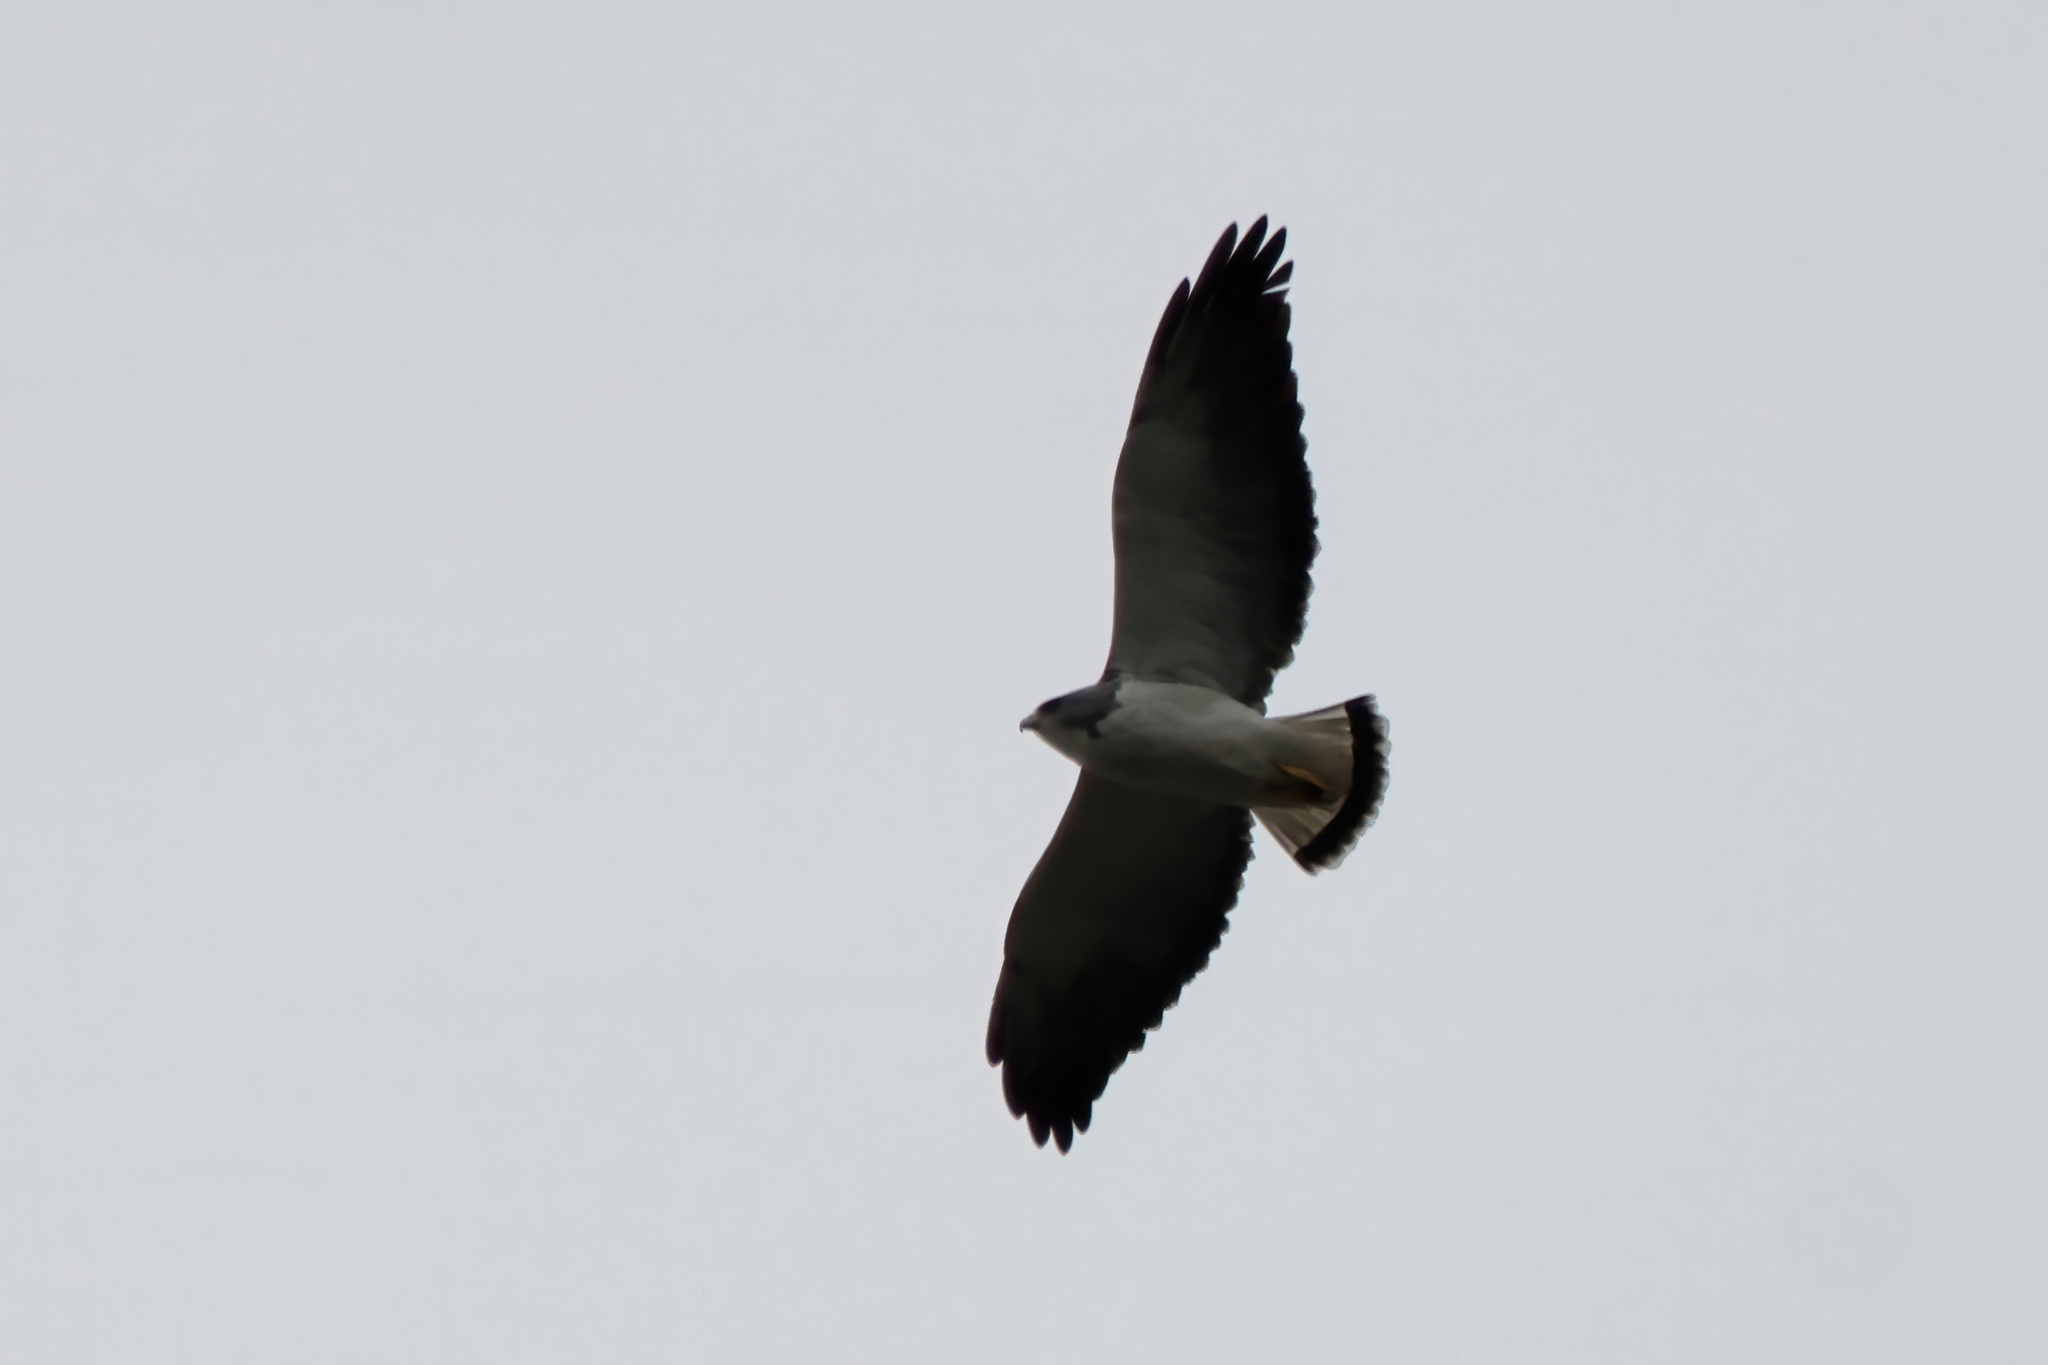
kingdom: Animalia
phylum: Chordata
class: Aves
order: Accipitriformes
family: Accipitridae
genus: Buteo
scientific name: Buteo albicaudatus
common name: White-tailed hawk
